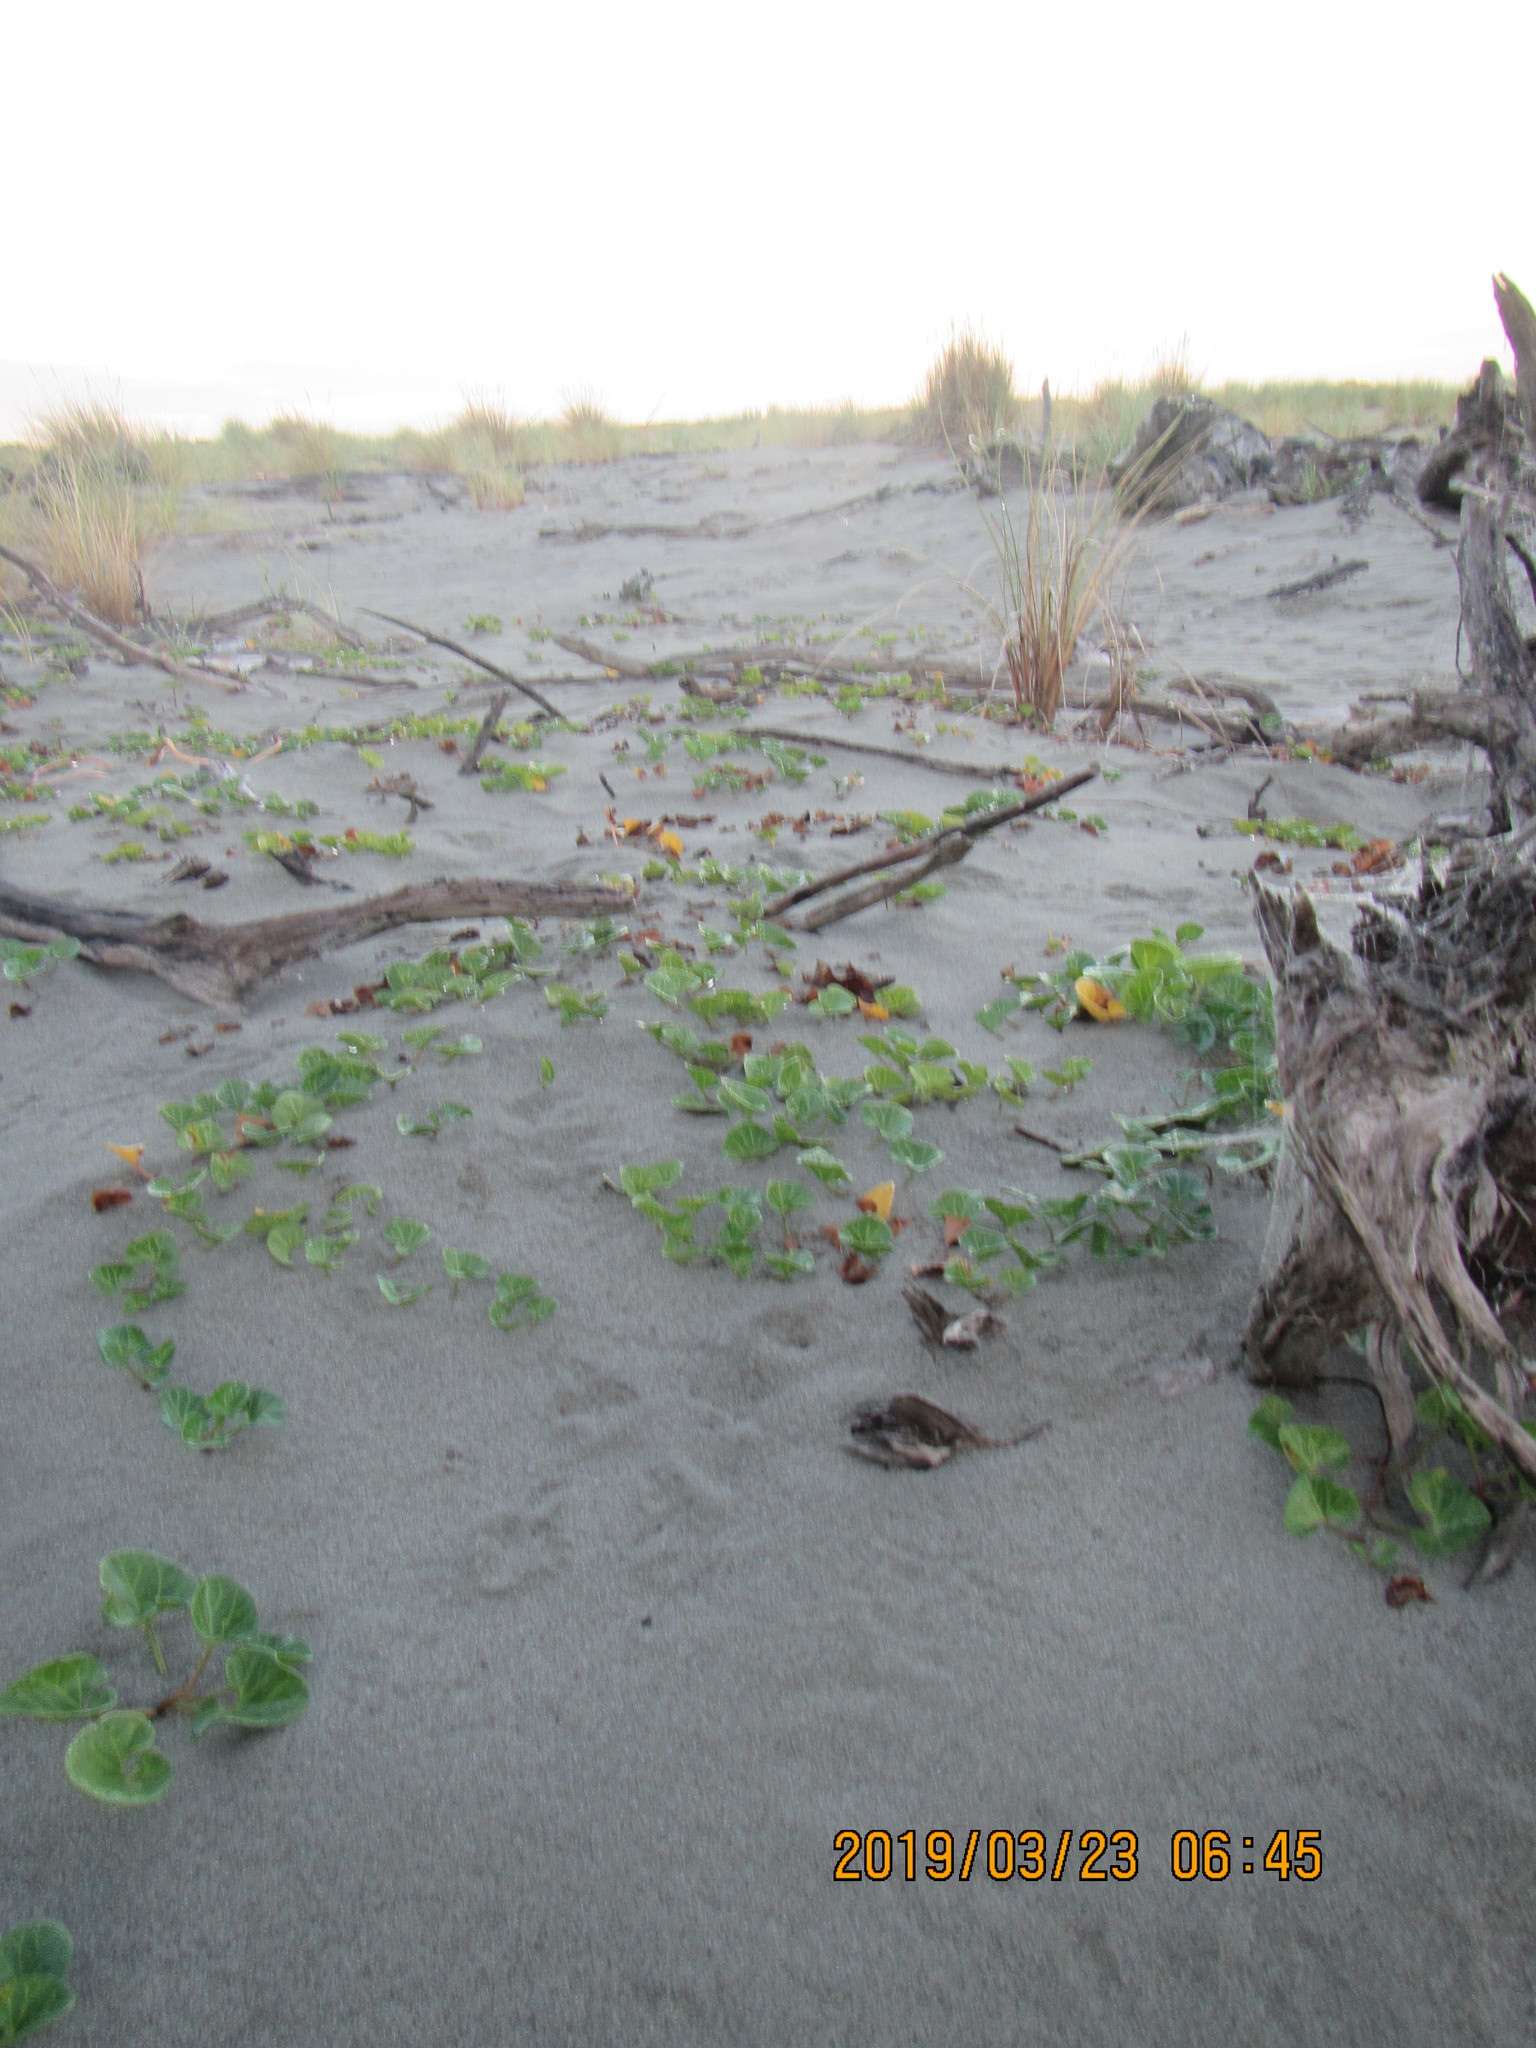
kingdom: Plantae
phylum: Tracheophyta
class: Magnoliopsida
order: Solanales
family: Convolvulaceae
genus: Calystegia
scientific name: Calystegia soldanella
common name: Sea bindweed
